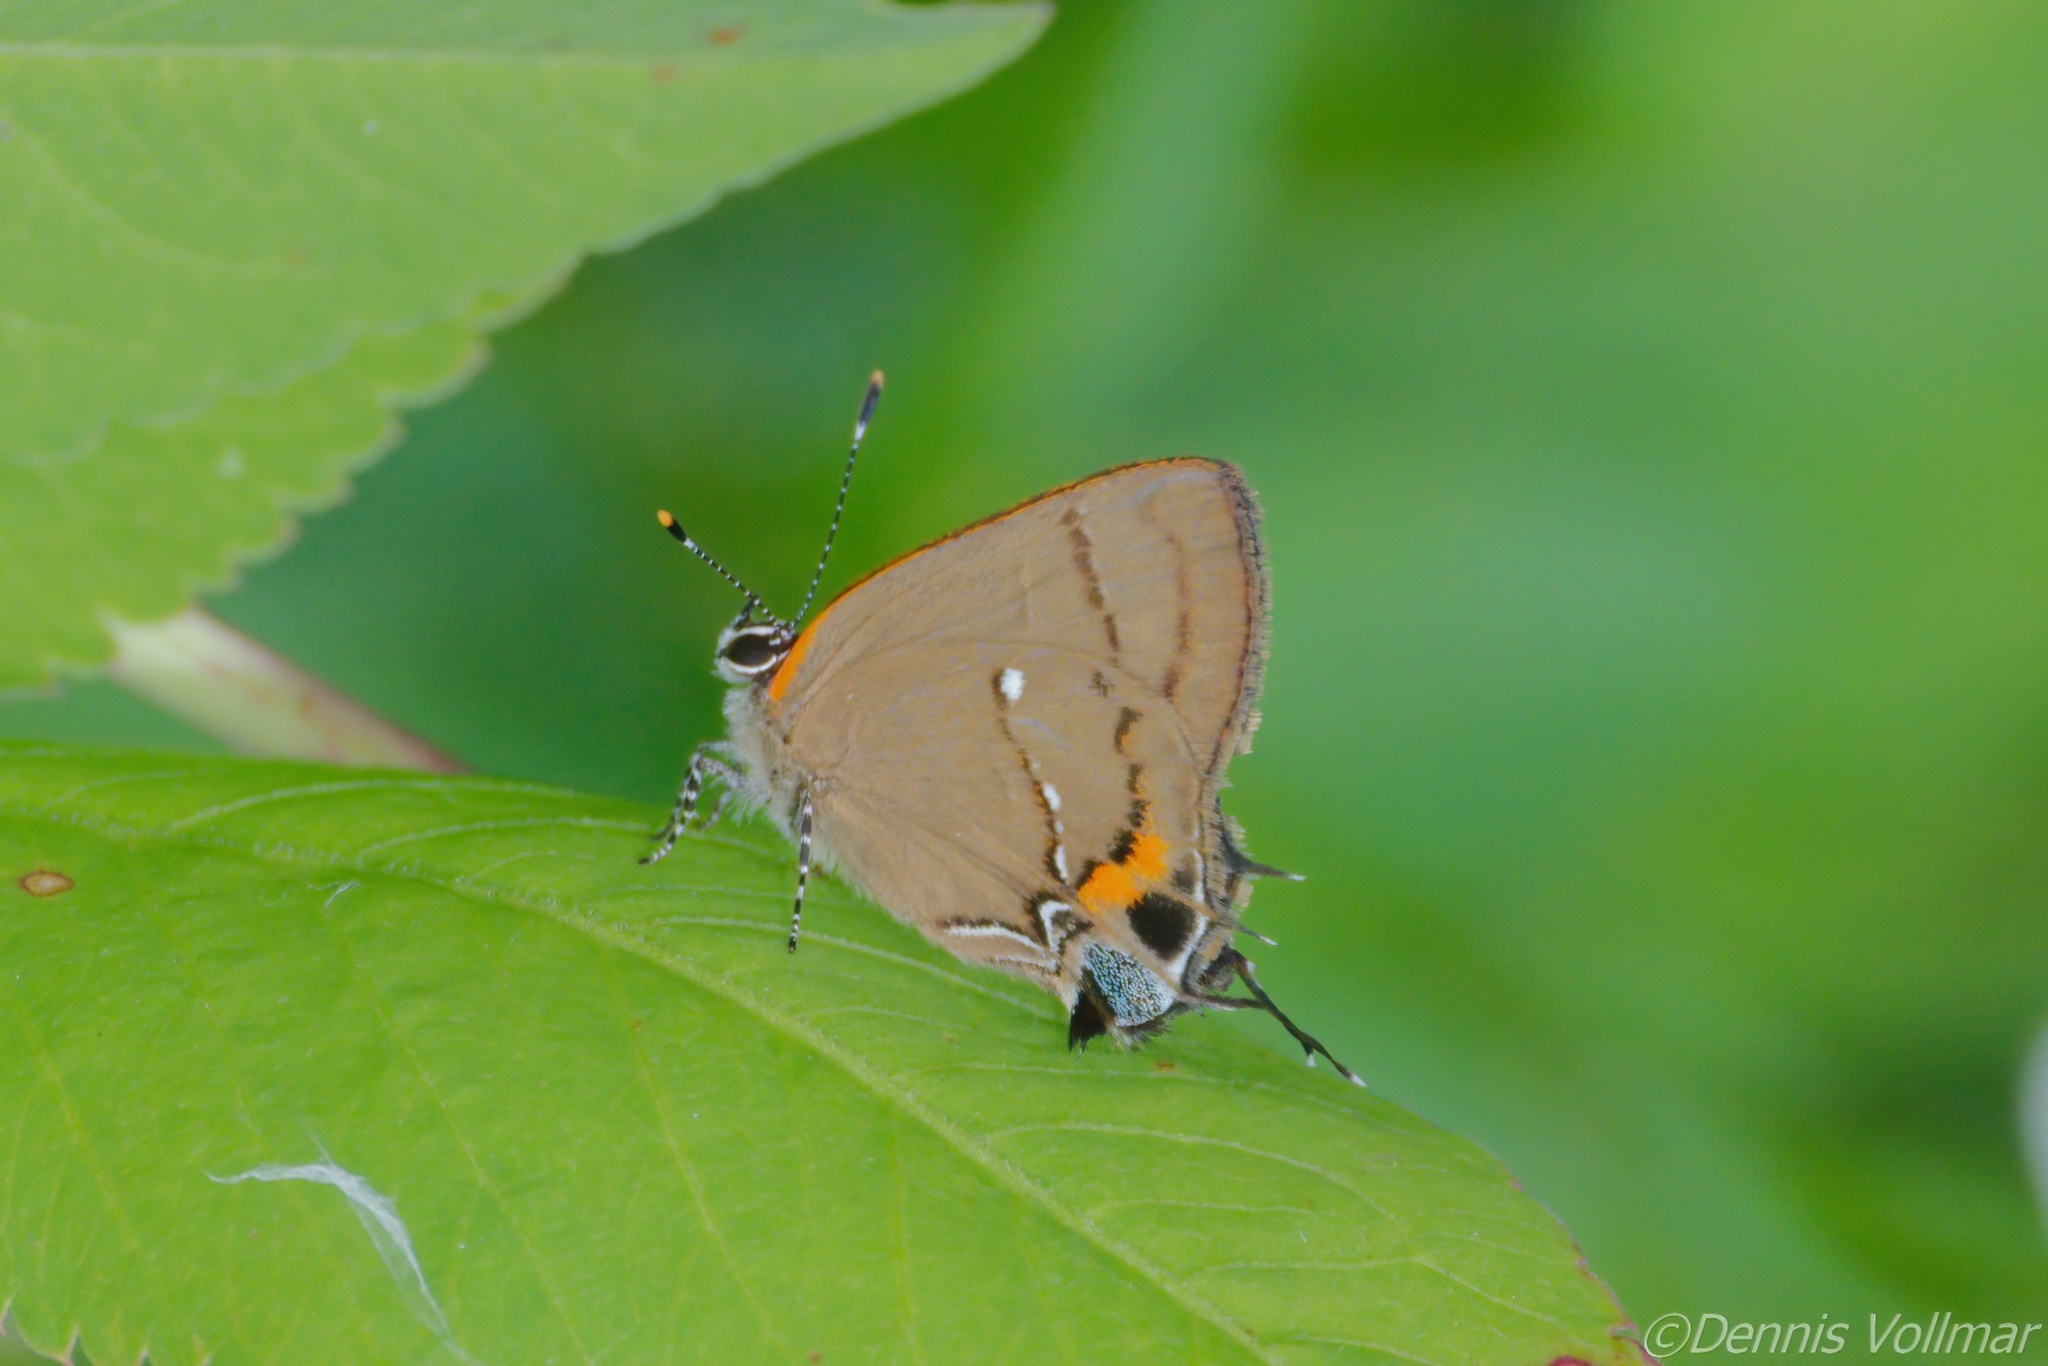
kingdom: Animalia
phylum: Arthropoda
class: Insecta
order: Lepidoptera
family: Lycaenidae
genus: Thecla
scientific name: Thecla angelia
